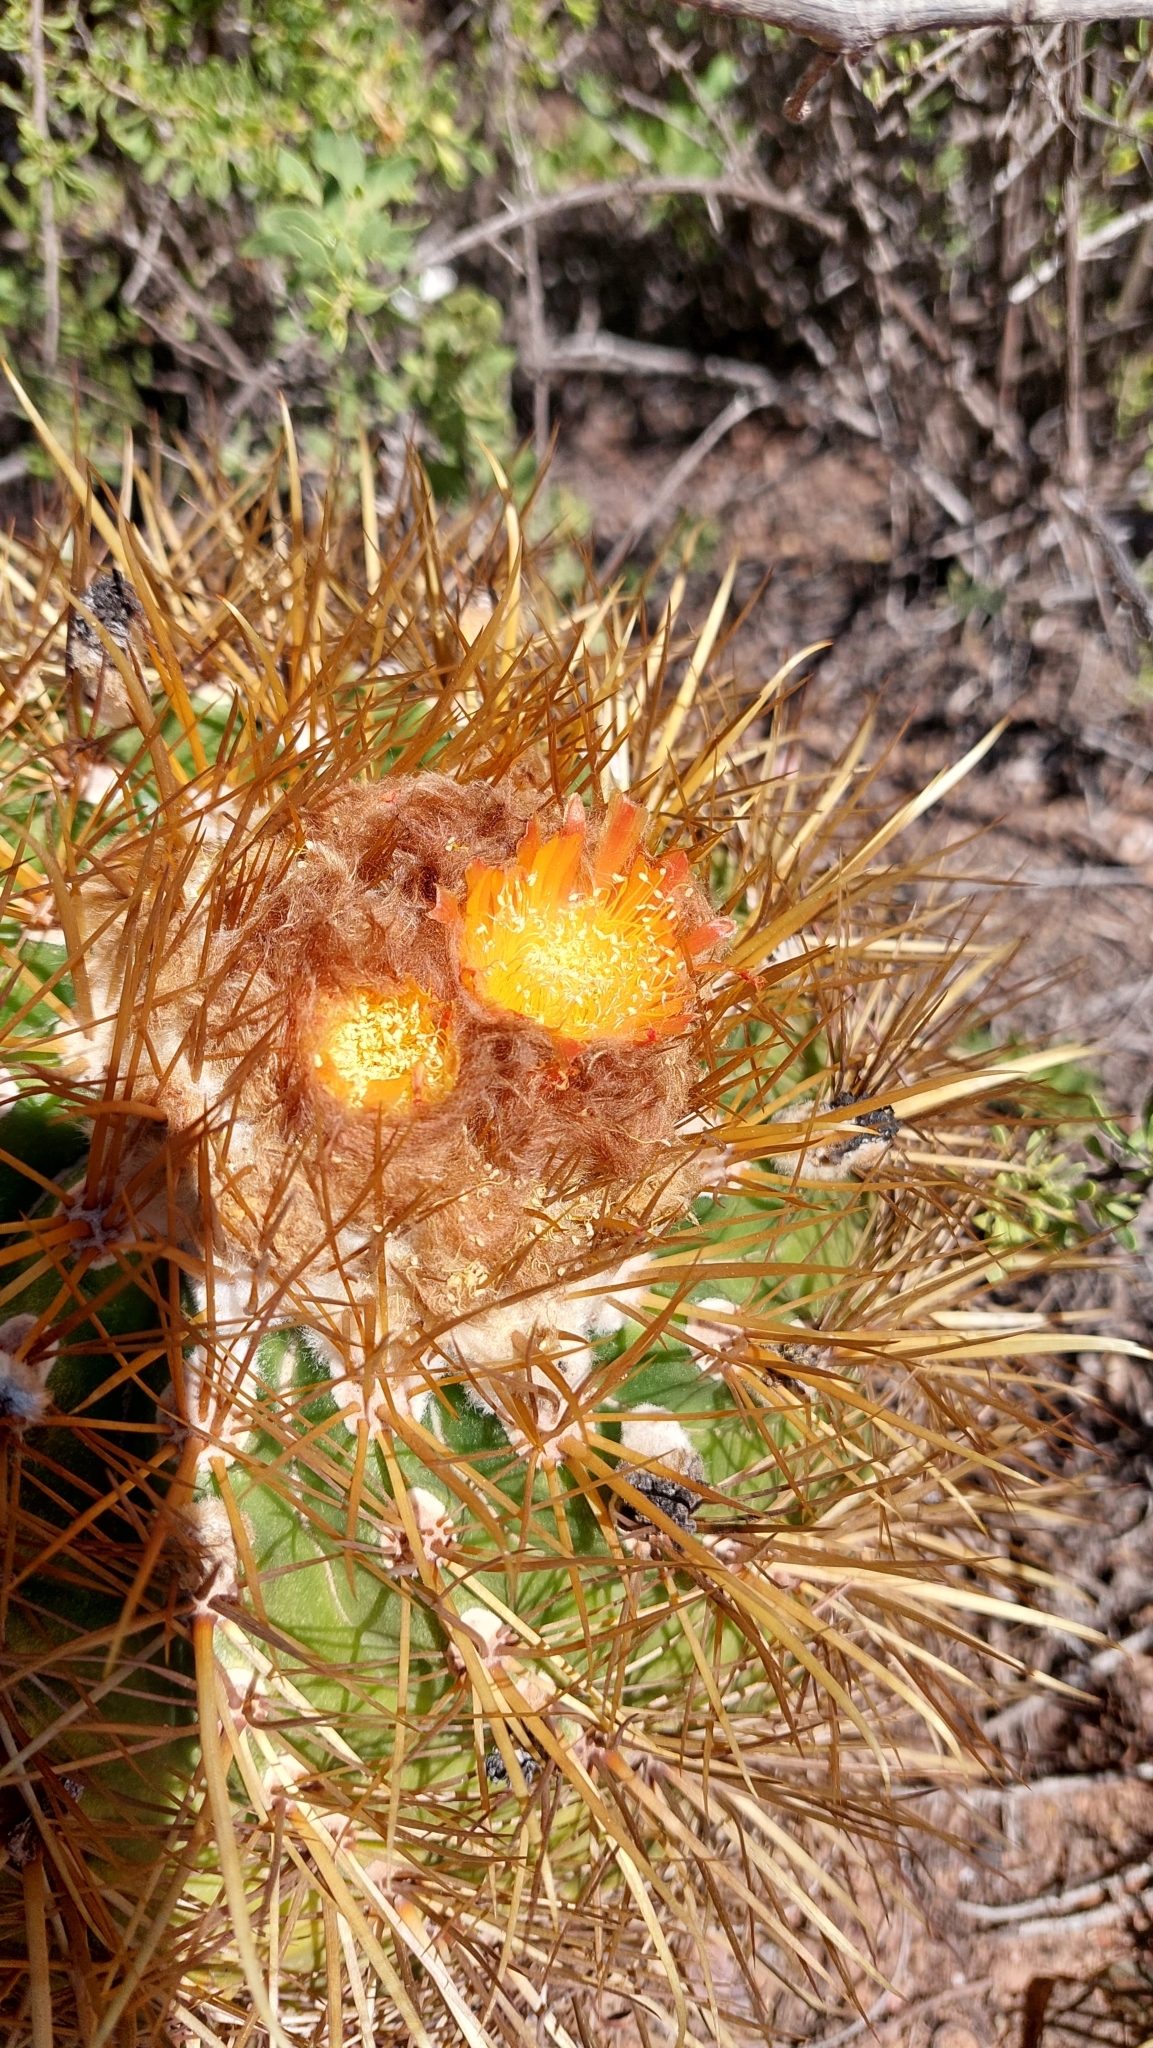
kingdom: Plantae
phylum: Tracheophyta
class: Magnoliopsida
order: Caryophyllales
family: Cactaceae
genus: Parodia
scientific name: Parodia maassii
